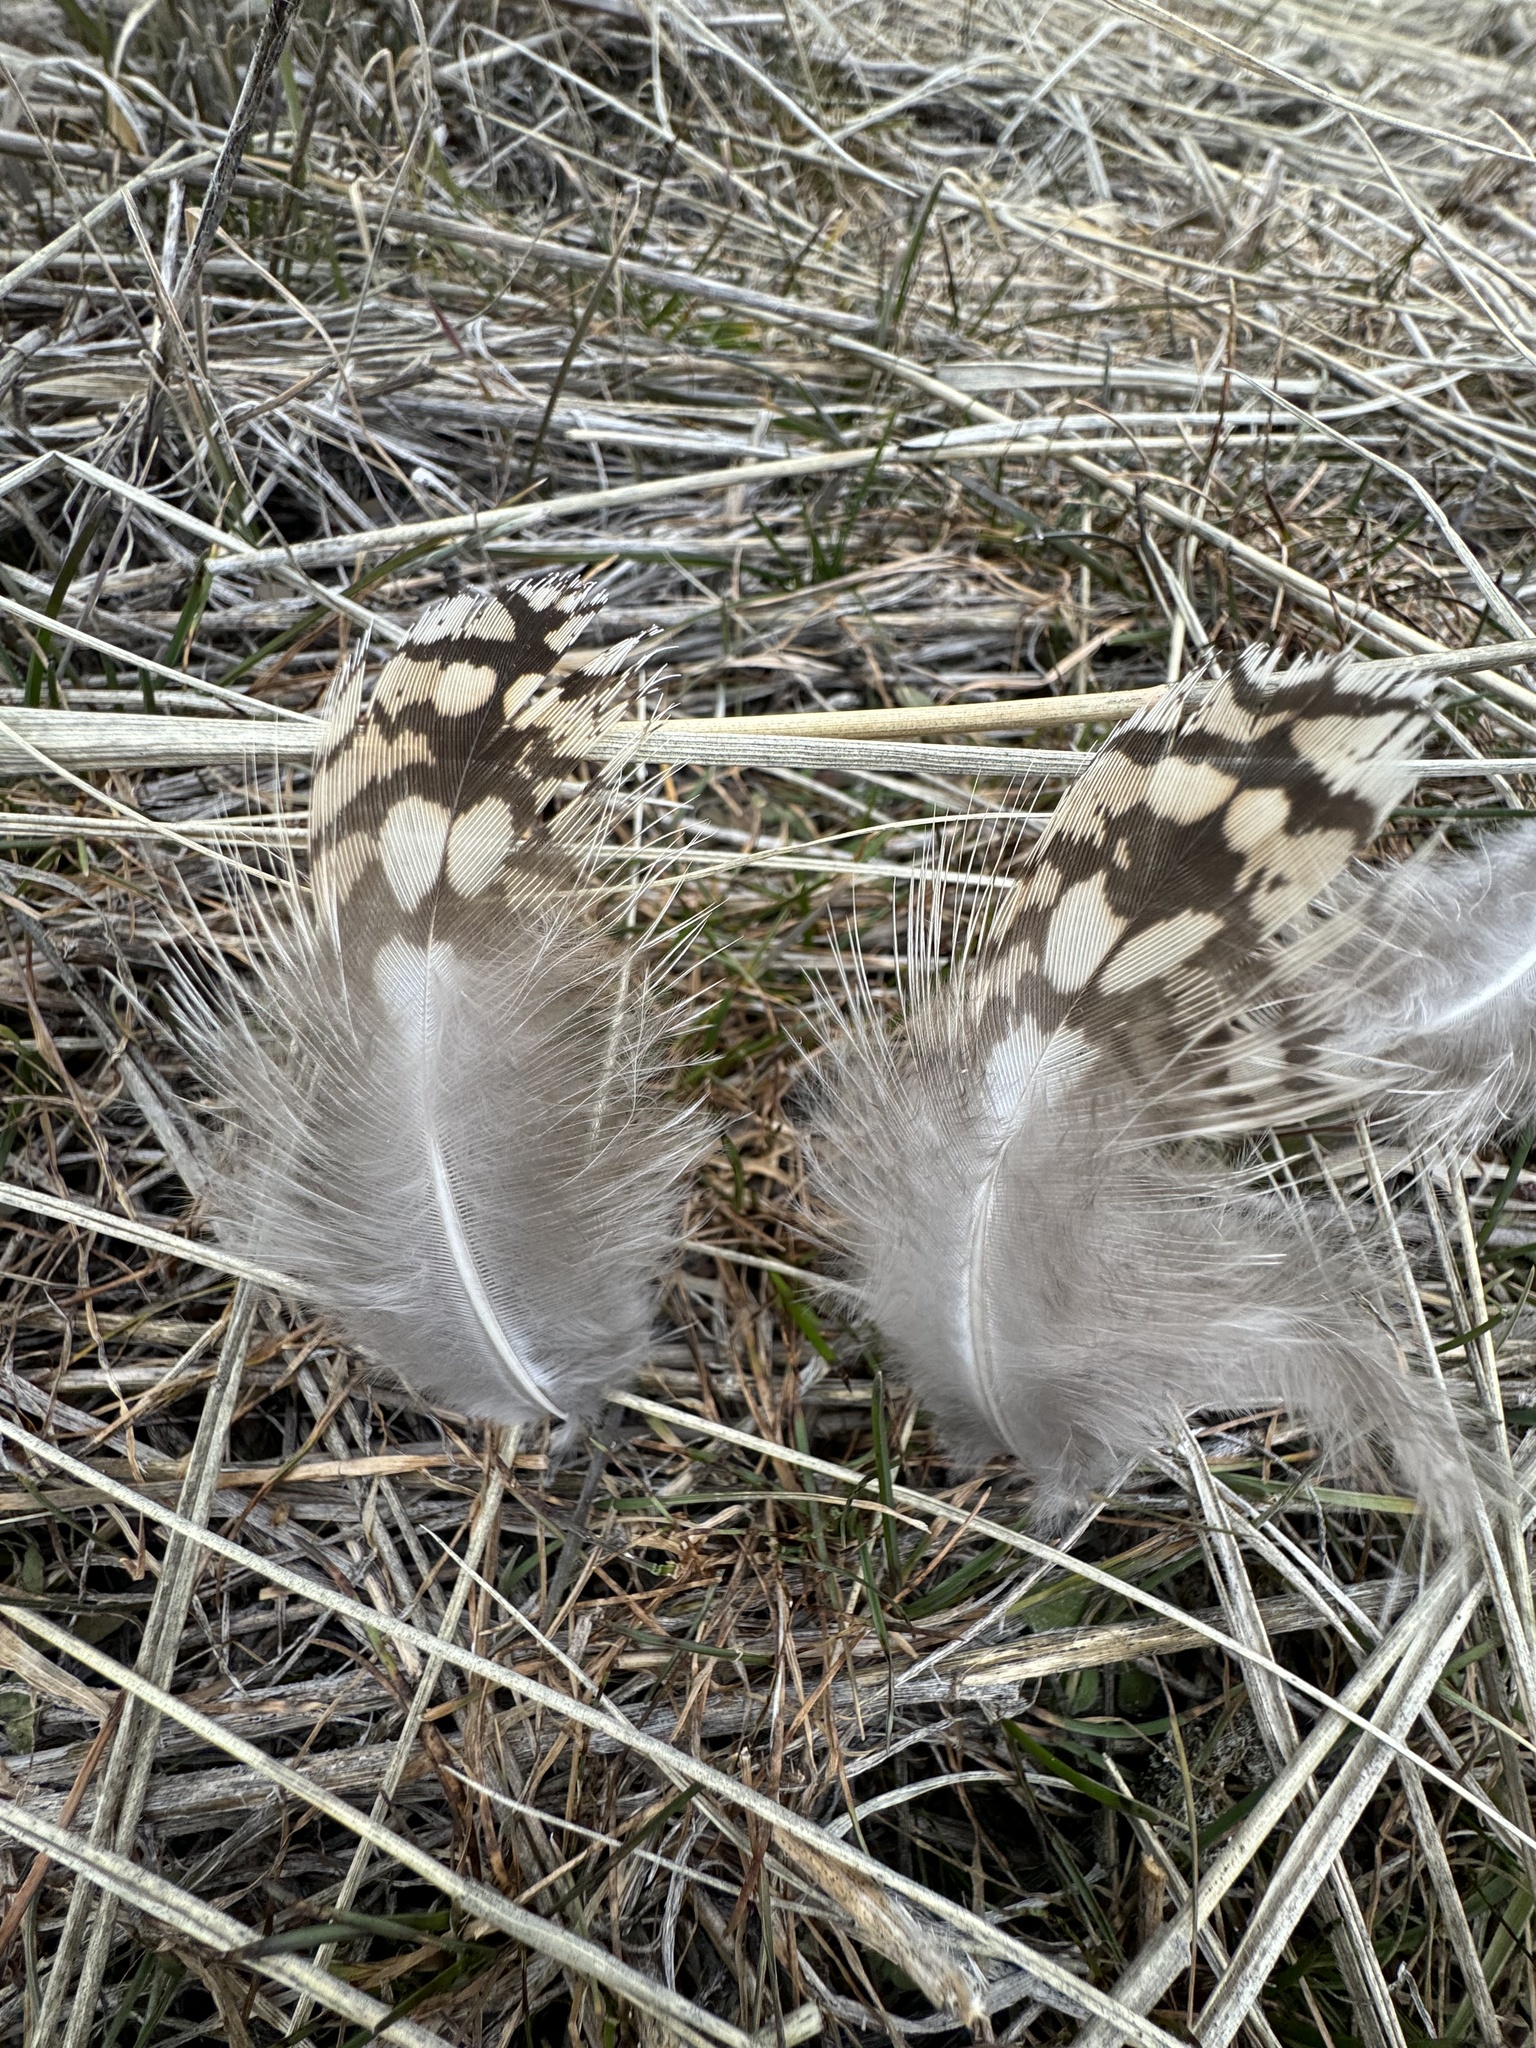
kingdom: Animalia
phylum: Chordata
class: Aves
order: Galliformes
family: Phasianidae
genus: Tympanuchus
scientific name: Tympanuchus phasianellus
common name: Sharp-tailed grouse
